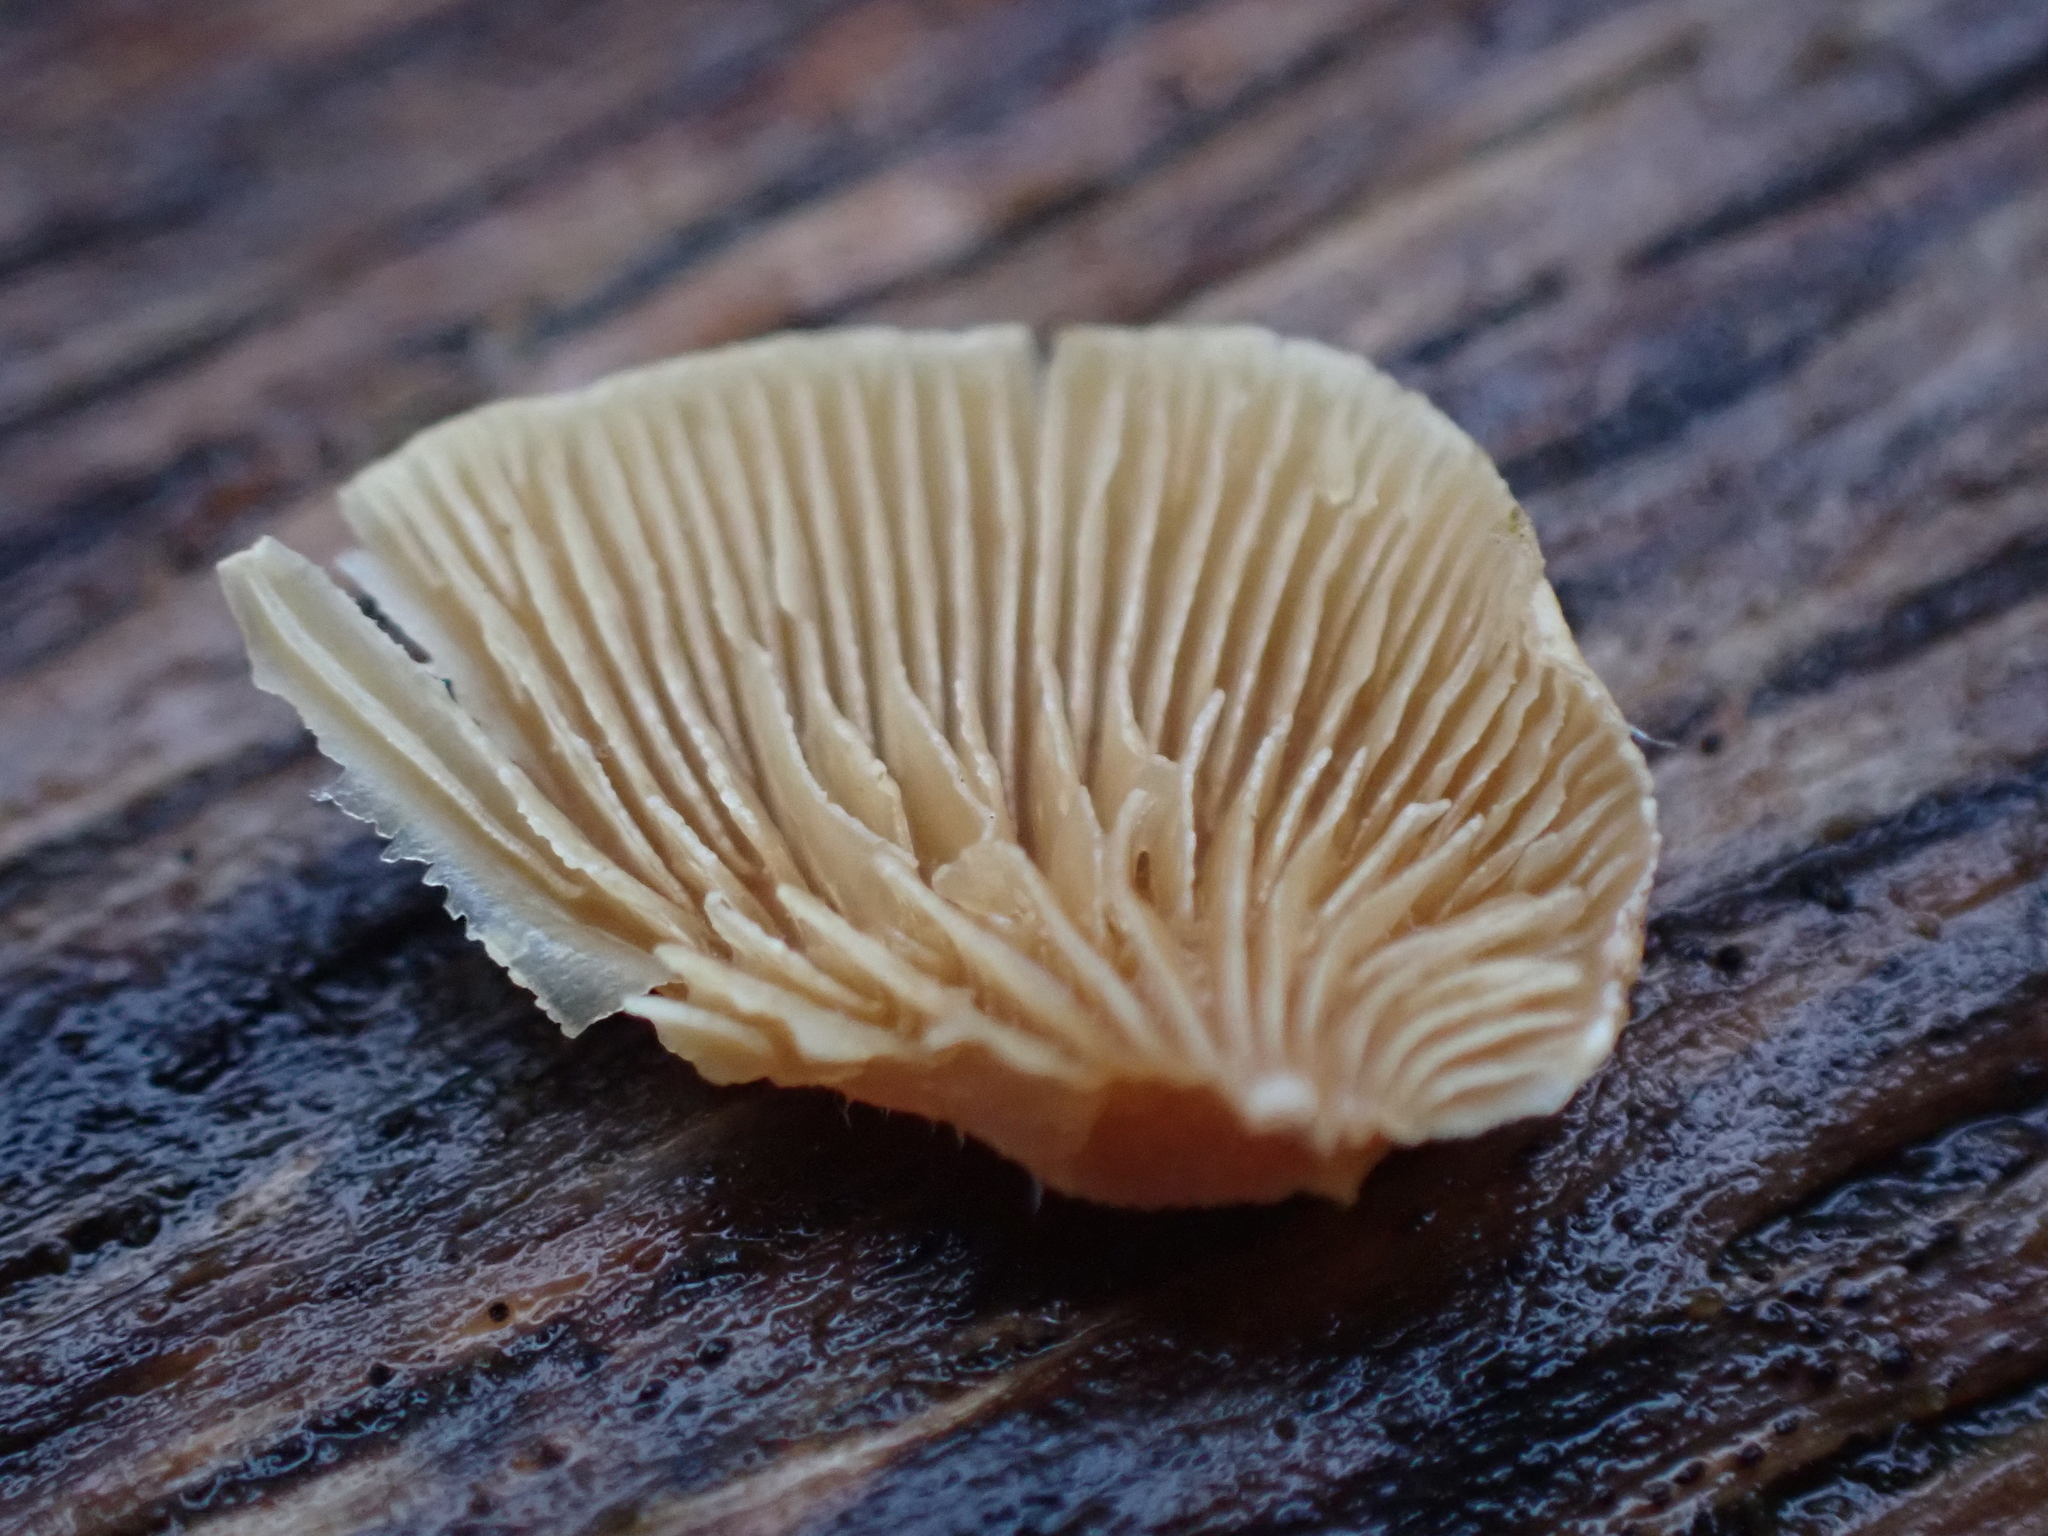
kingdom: Fungi
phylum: Basidiomycota
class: Agaricomycetes
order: Agaricales
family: Mycenaceae
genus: Panellus
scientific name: Panellus stipticus
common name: Bitter oysterling
